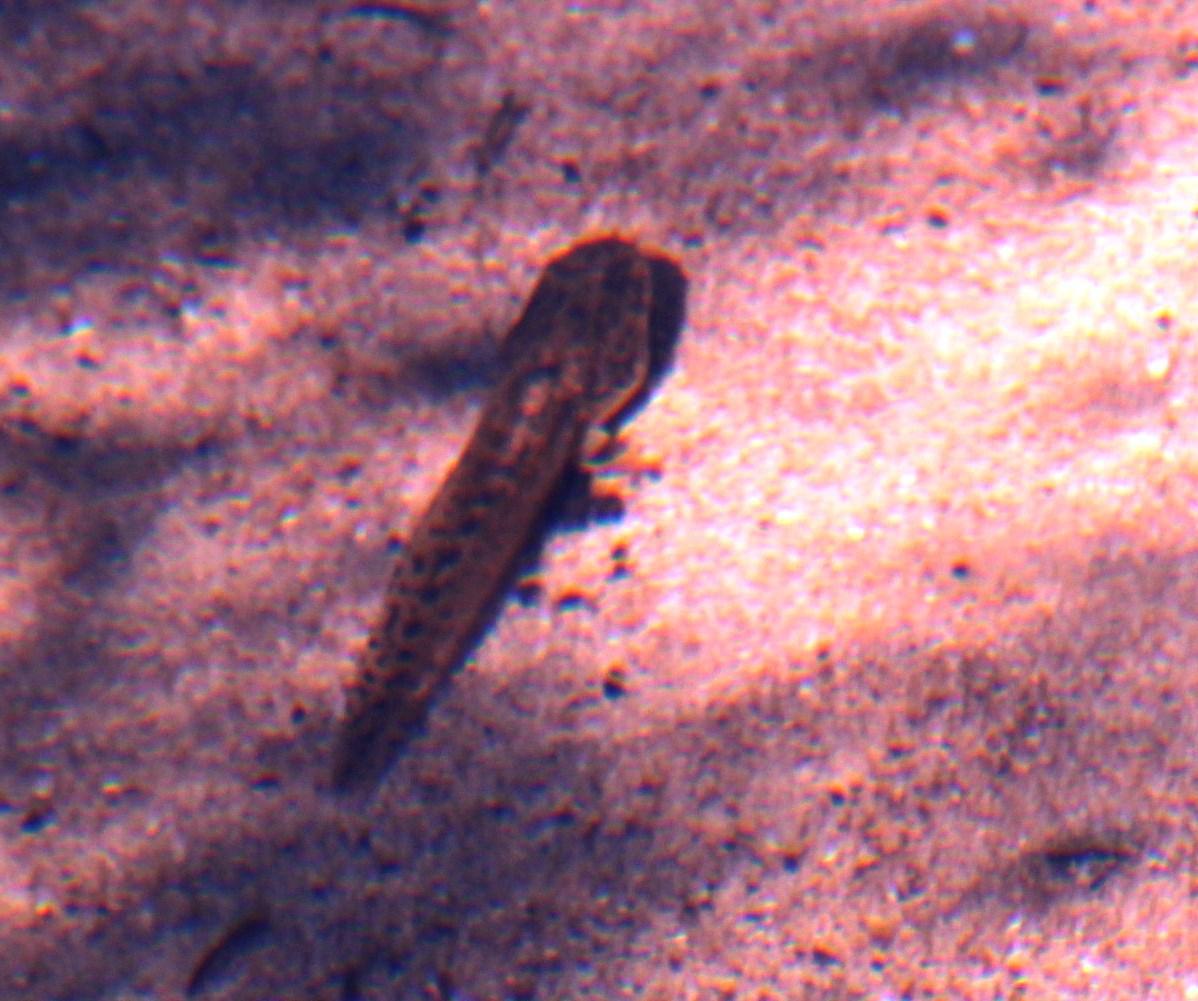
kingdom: Animalia
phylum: Chordata
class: Amphibia
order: Anura
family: Pyxicephalidae
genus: Amietia
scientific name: Amietia fuscigula
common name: Cape rana
